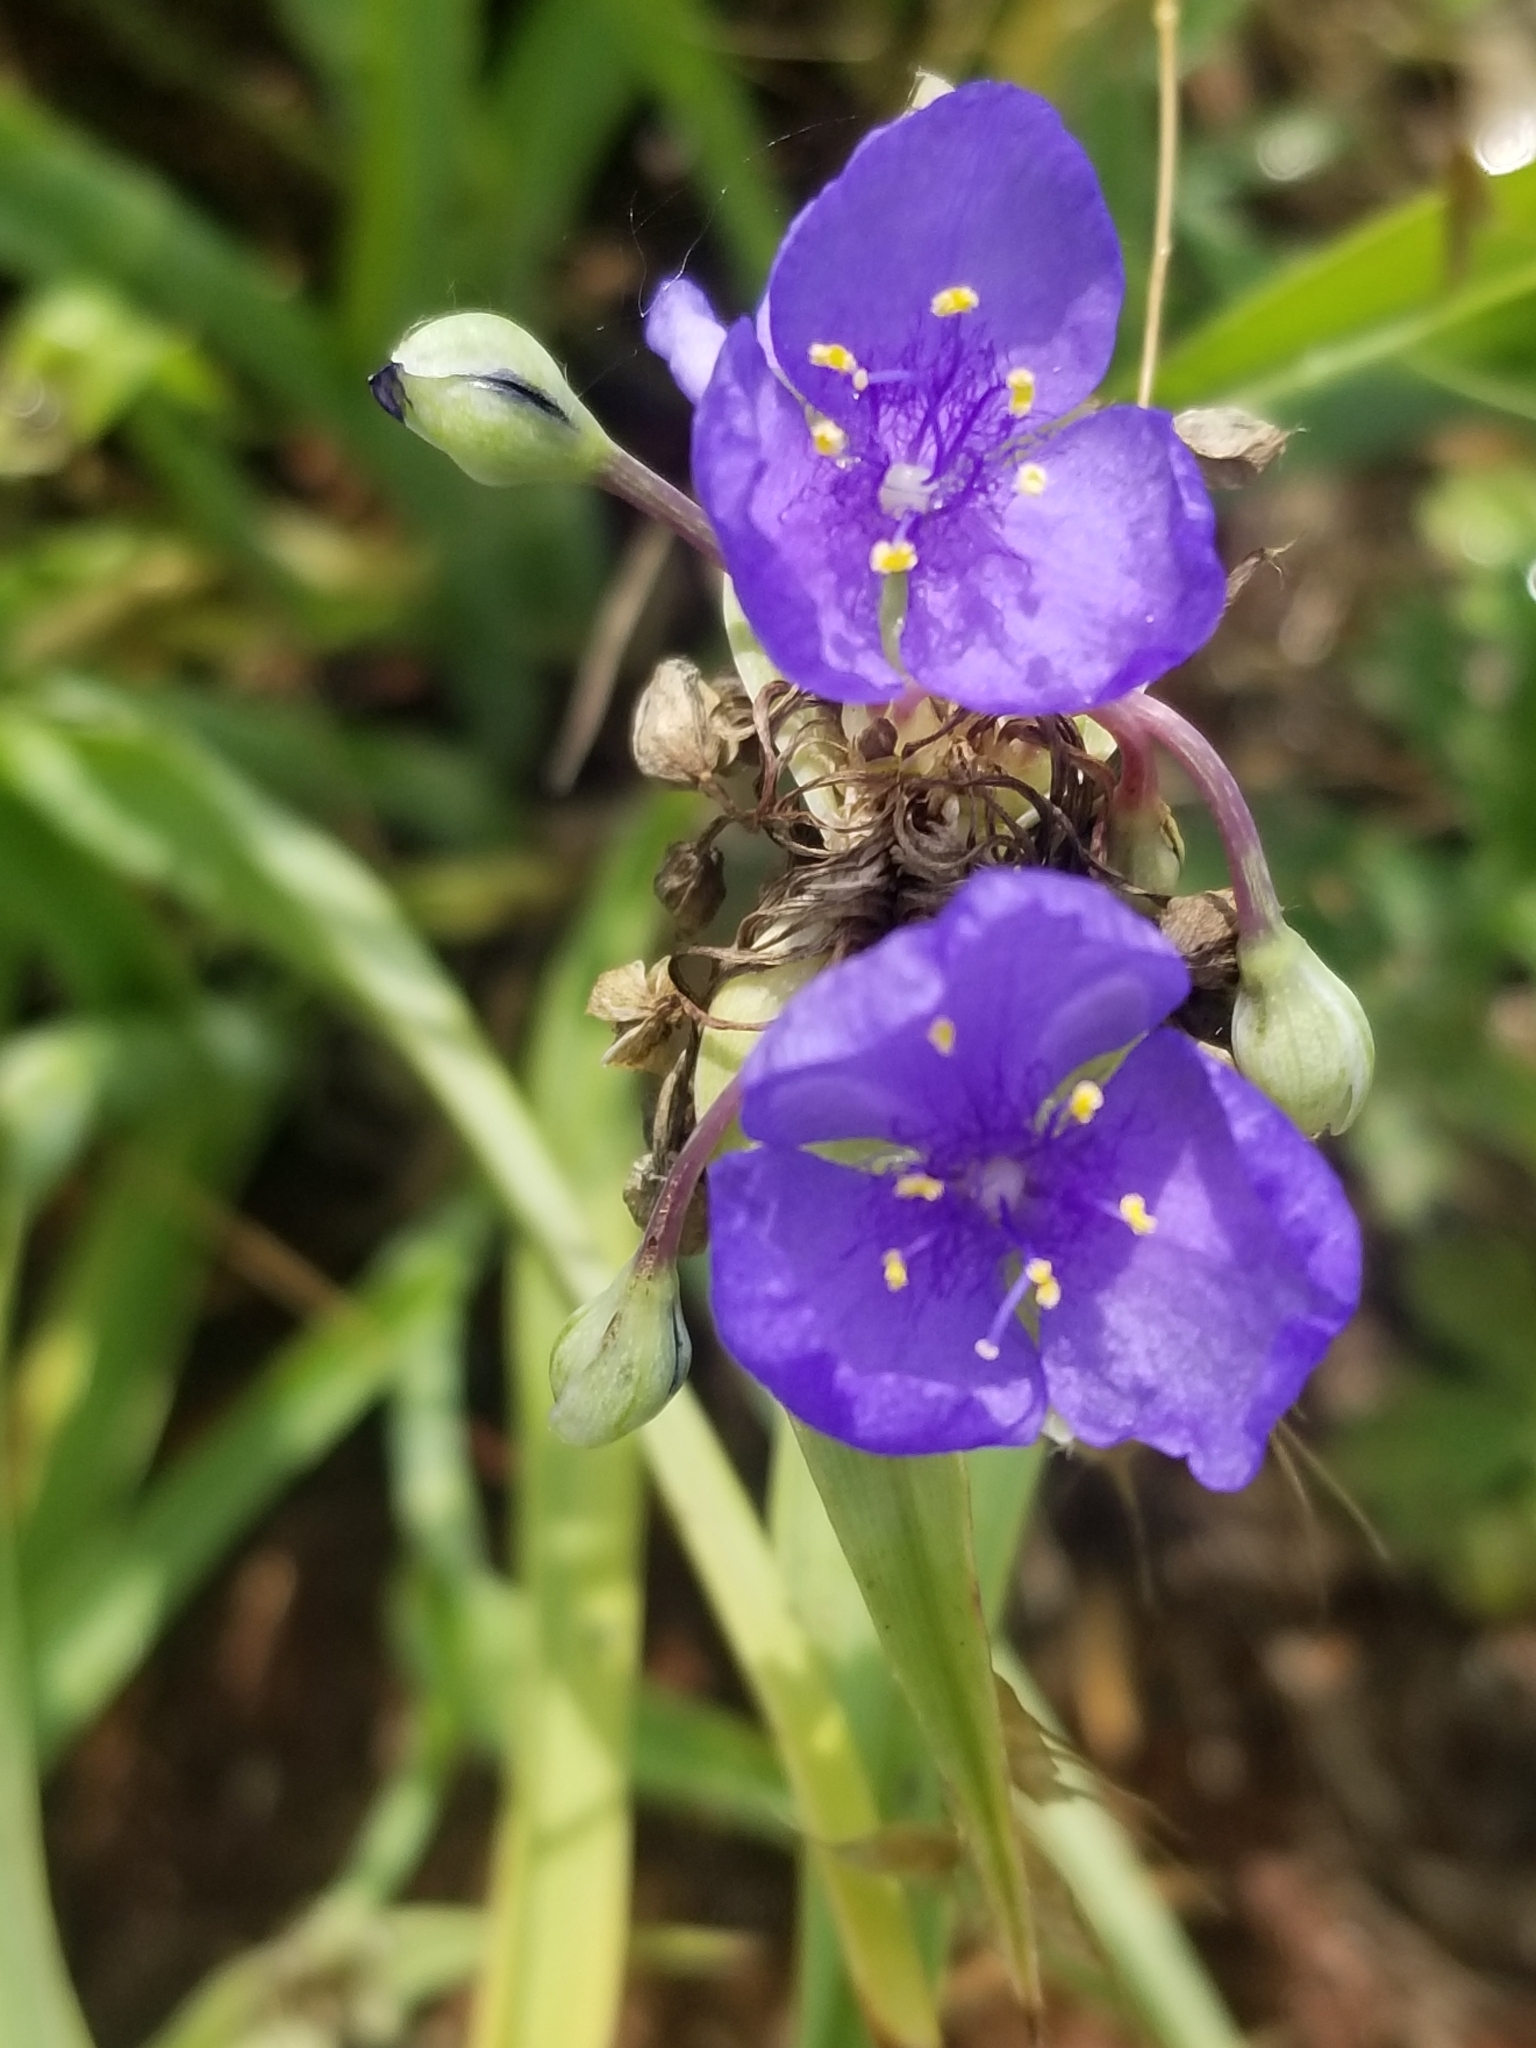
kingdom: Plantae
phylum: Tracheophyta
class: Liliopsida
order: Commelinales
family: Commelinaceae
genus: Tradescantia
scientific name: Tradescantia ohiensis
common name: Ohio spiderwort
